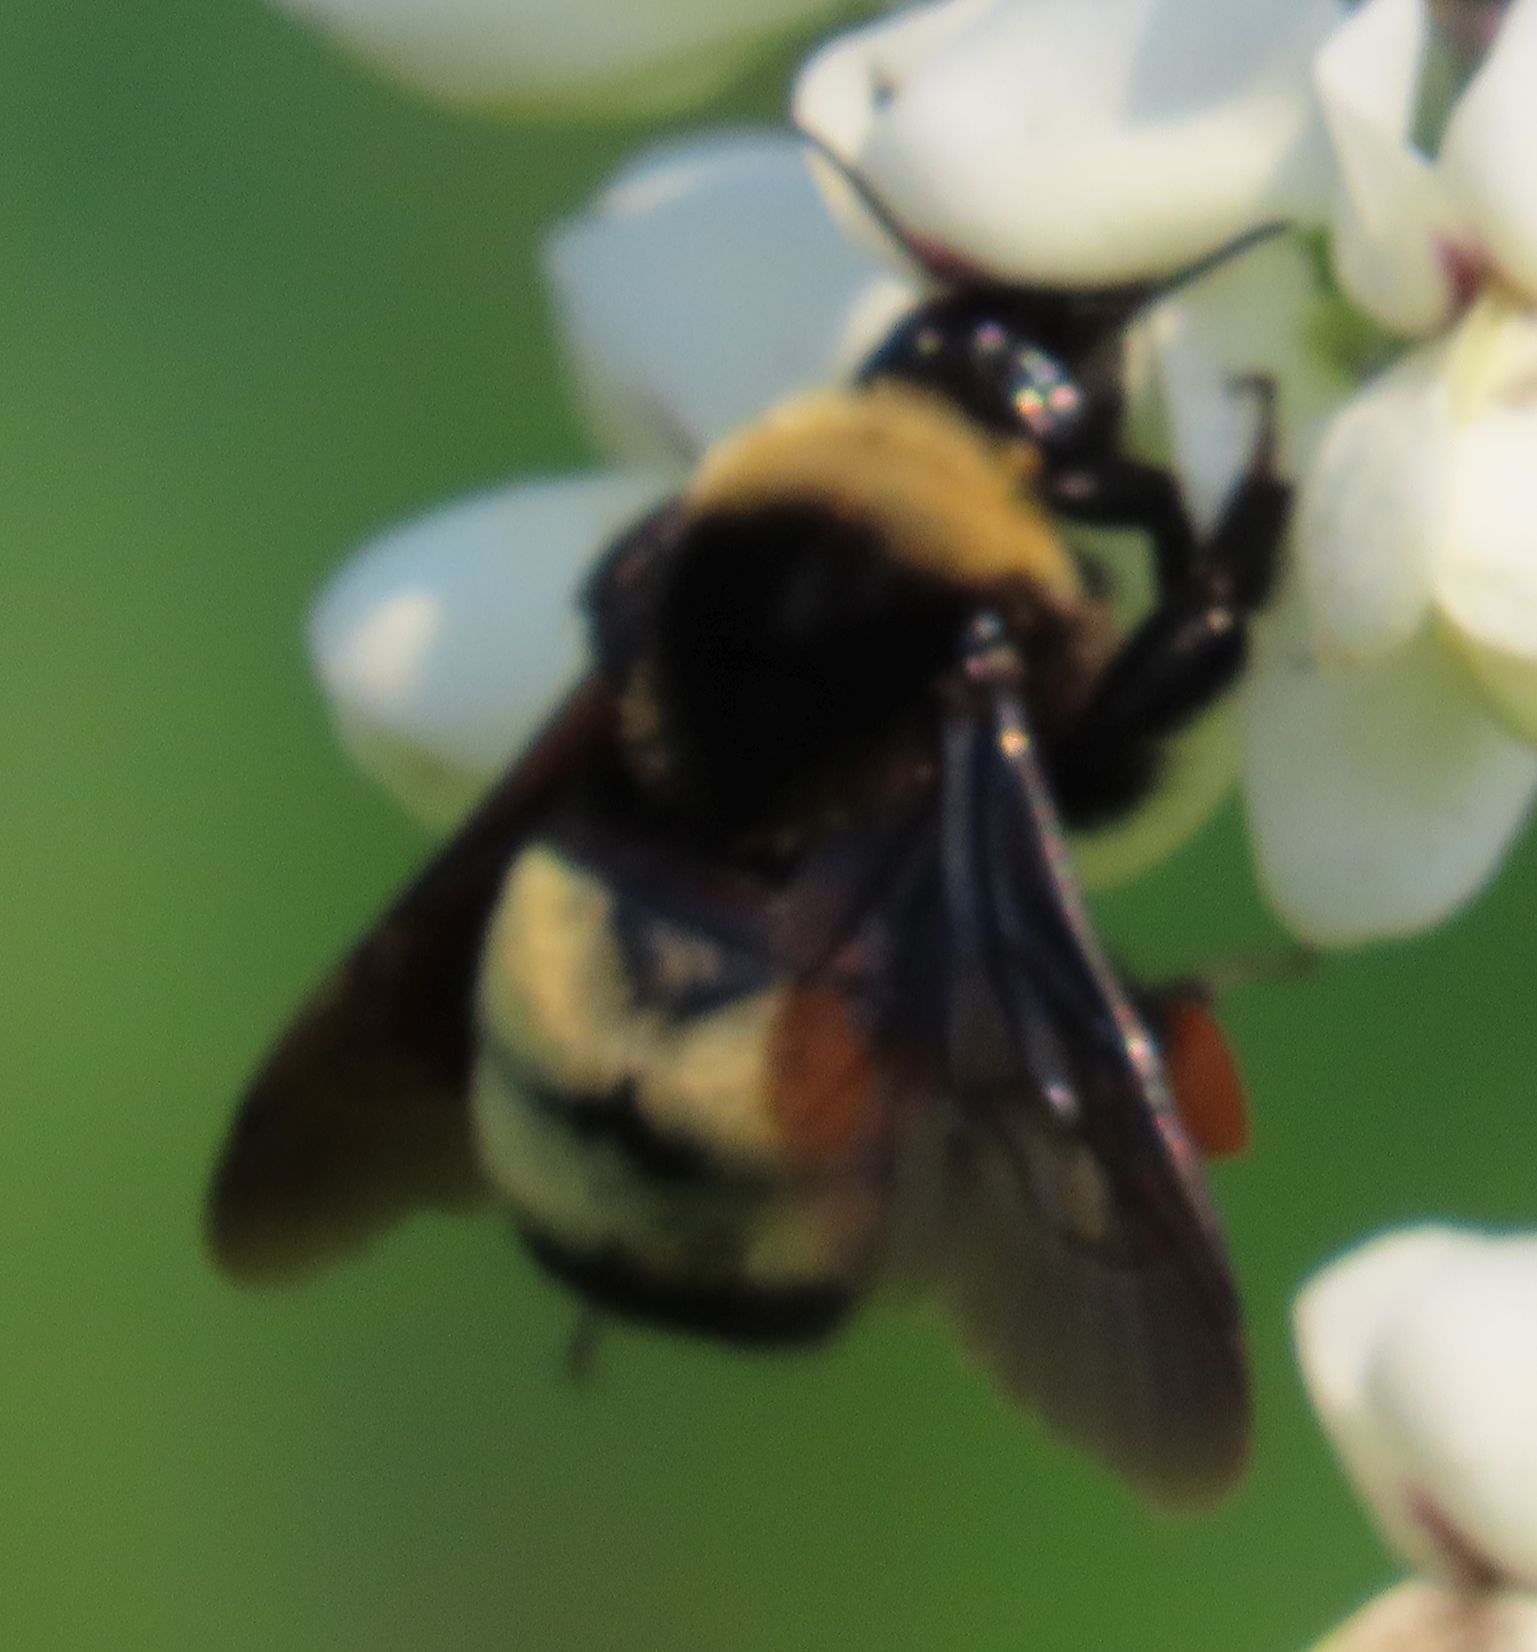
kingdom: Animalia
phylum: Arthropoda
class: Insecta
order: Hymenoptera
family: Apidae
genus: Bombus
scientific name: Bombus auricomus
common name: Black and gold bumble bee
